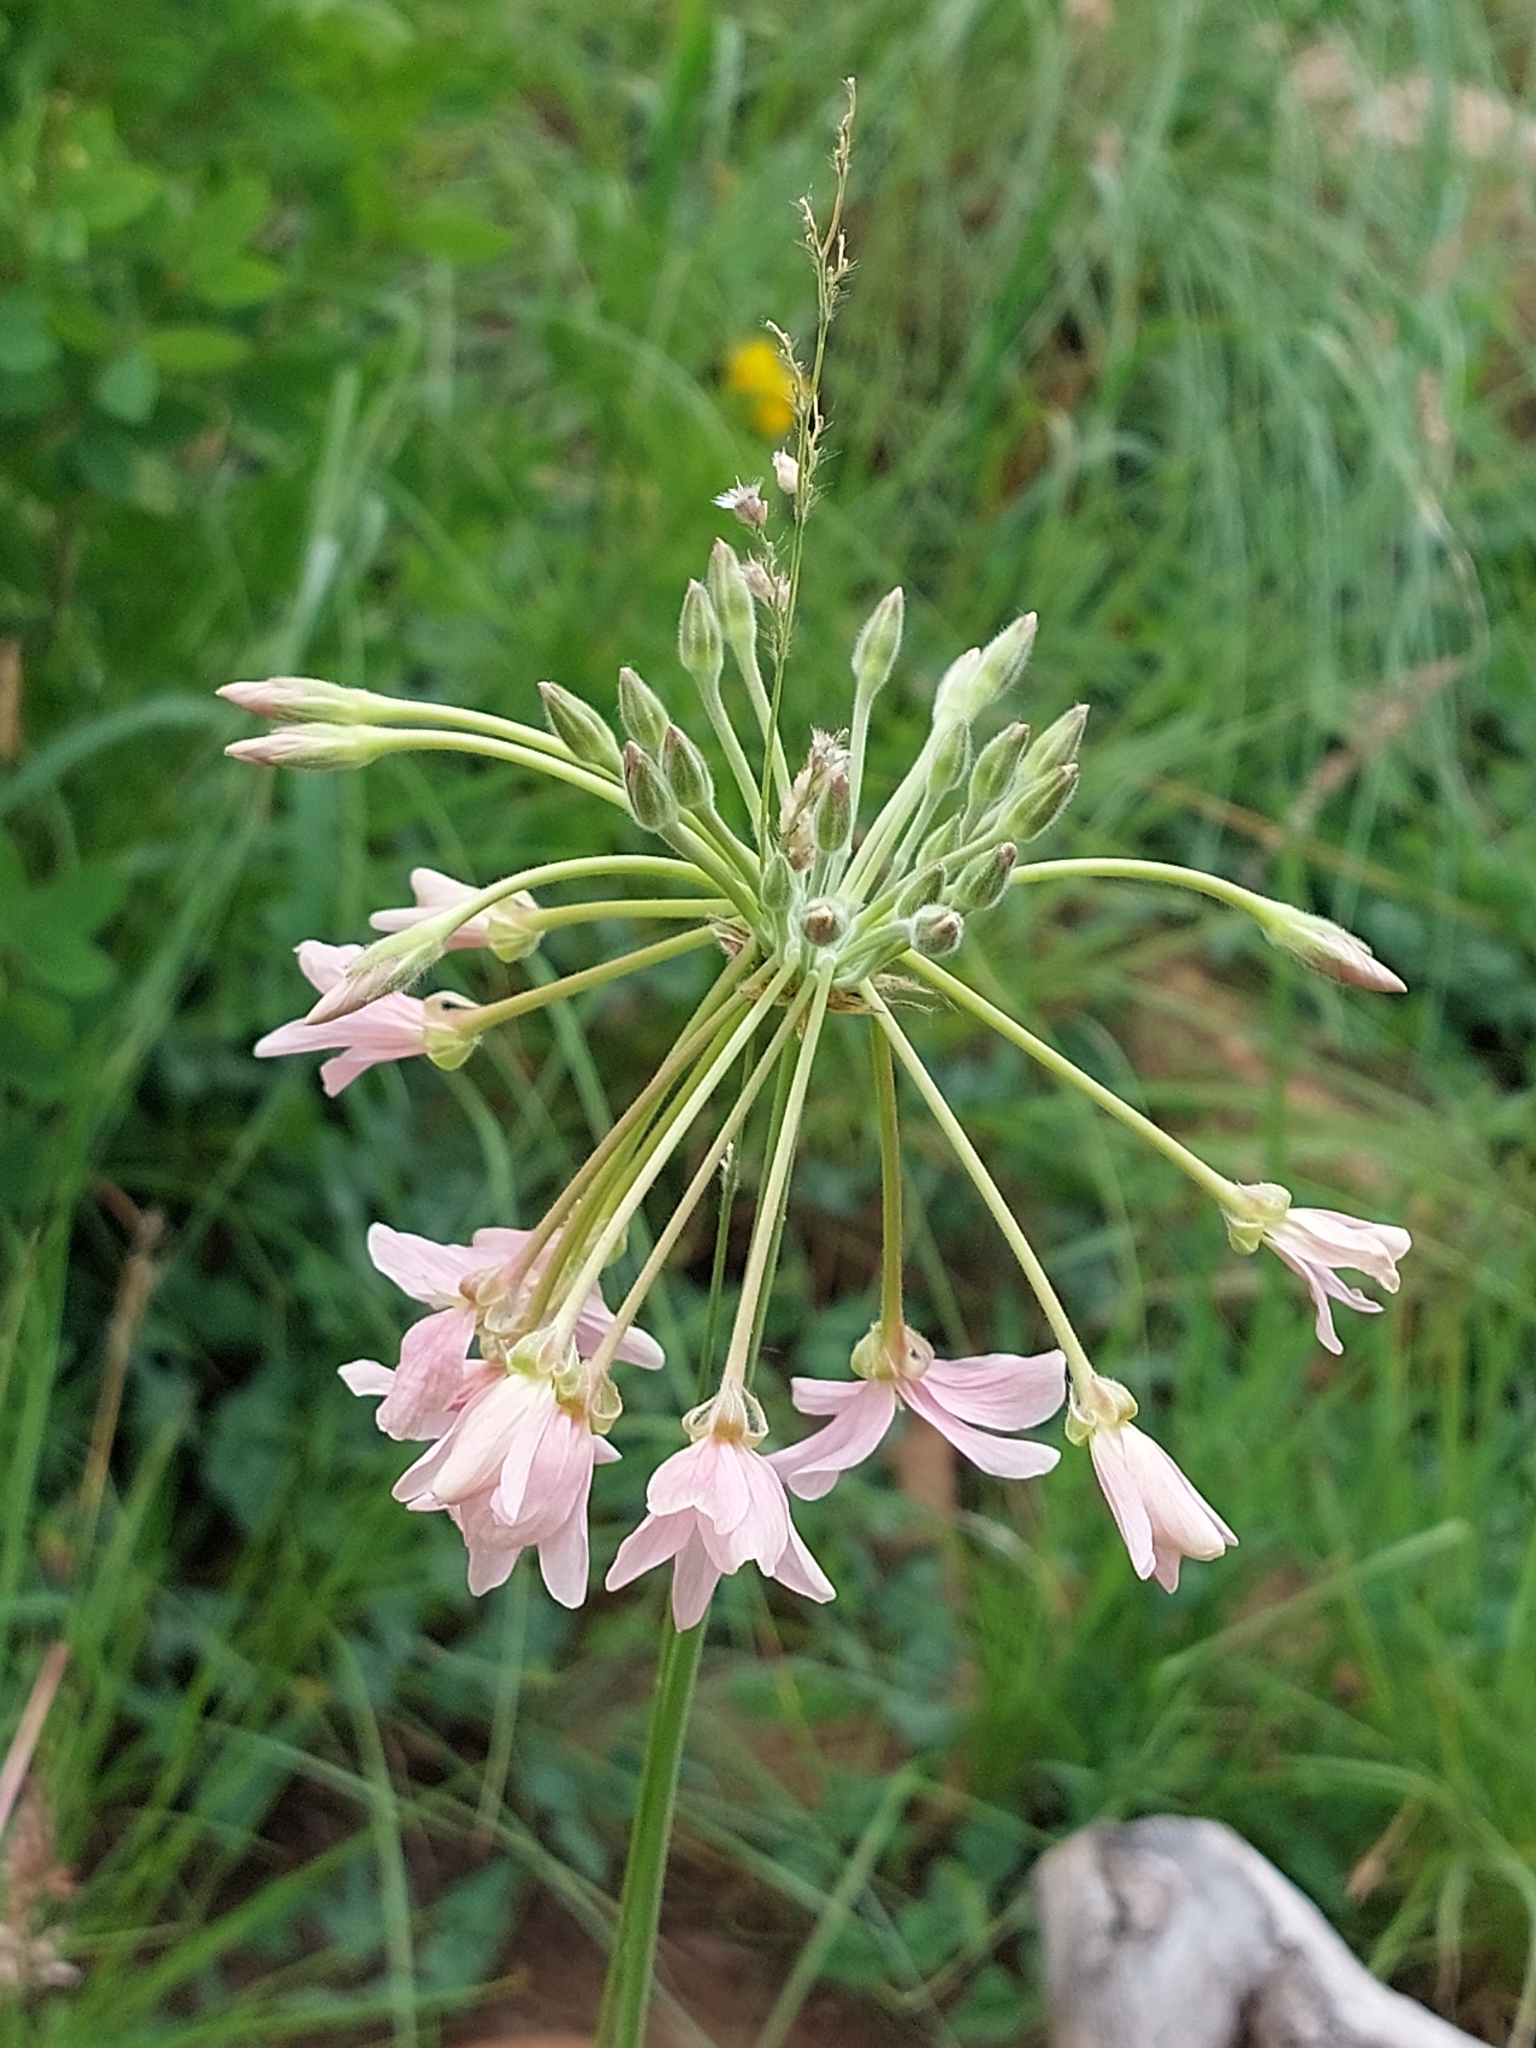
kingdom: Plantae
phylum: Tracheophyta
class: Magnoliopsida
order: Geraniales
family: Geraniaceae
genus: Pelargonium
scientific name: Pelargonium luridum
